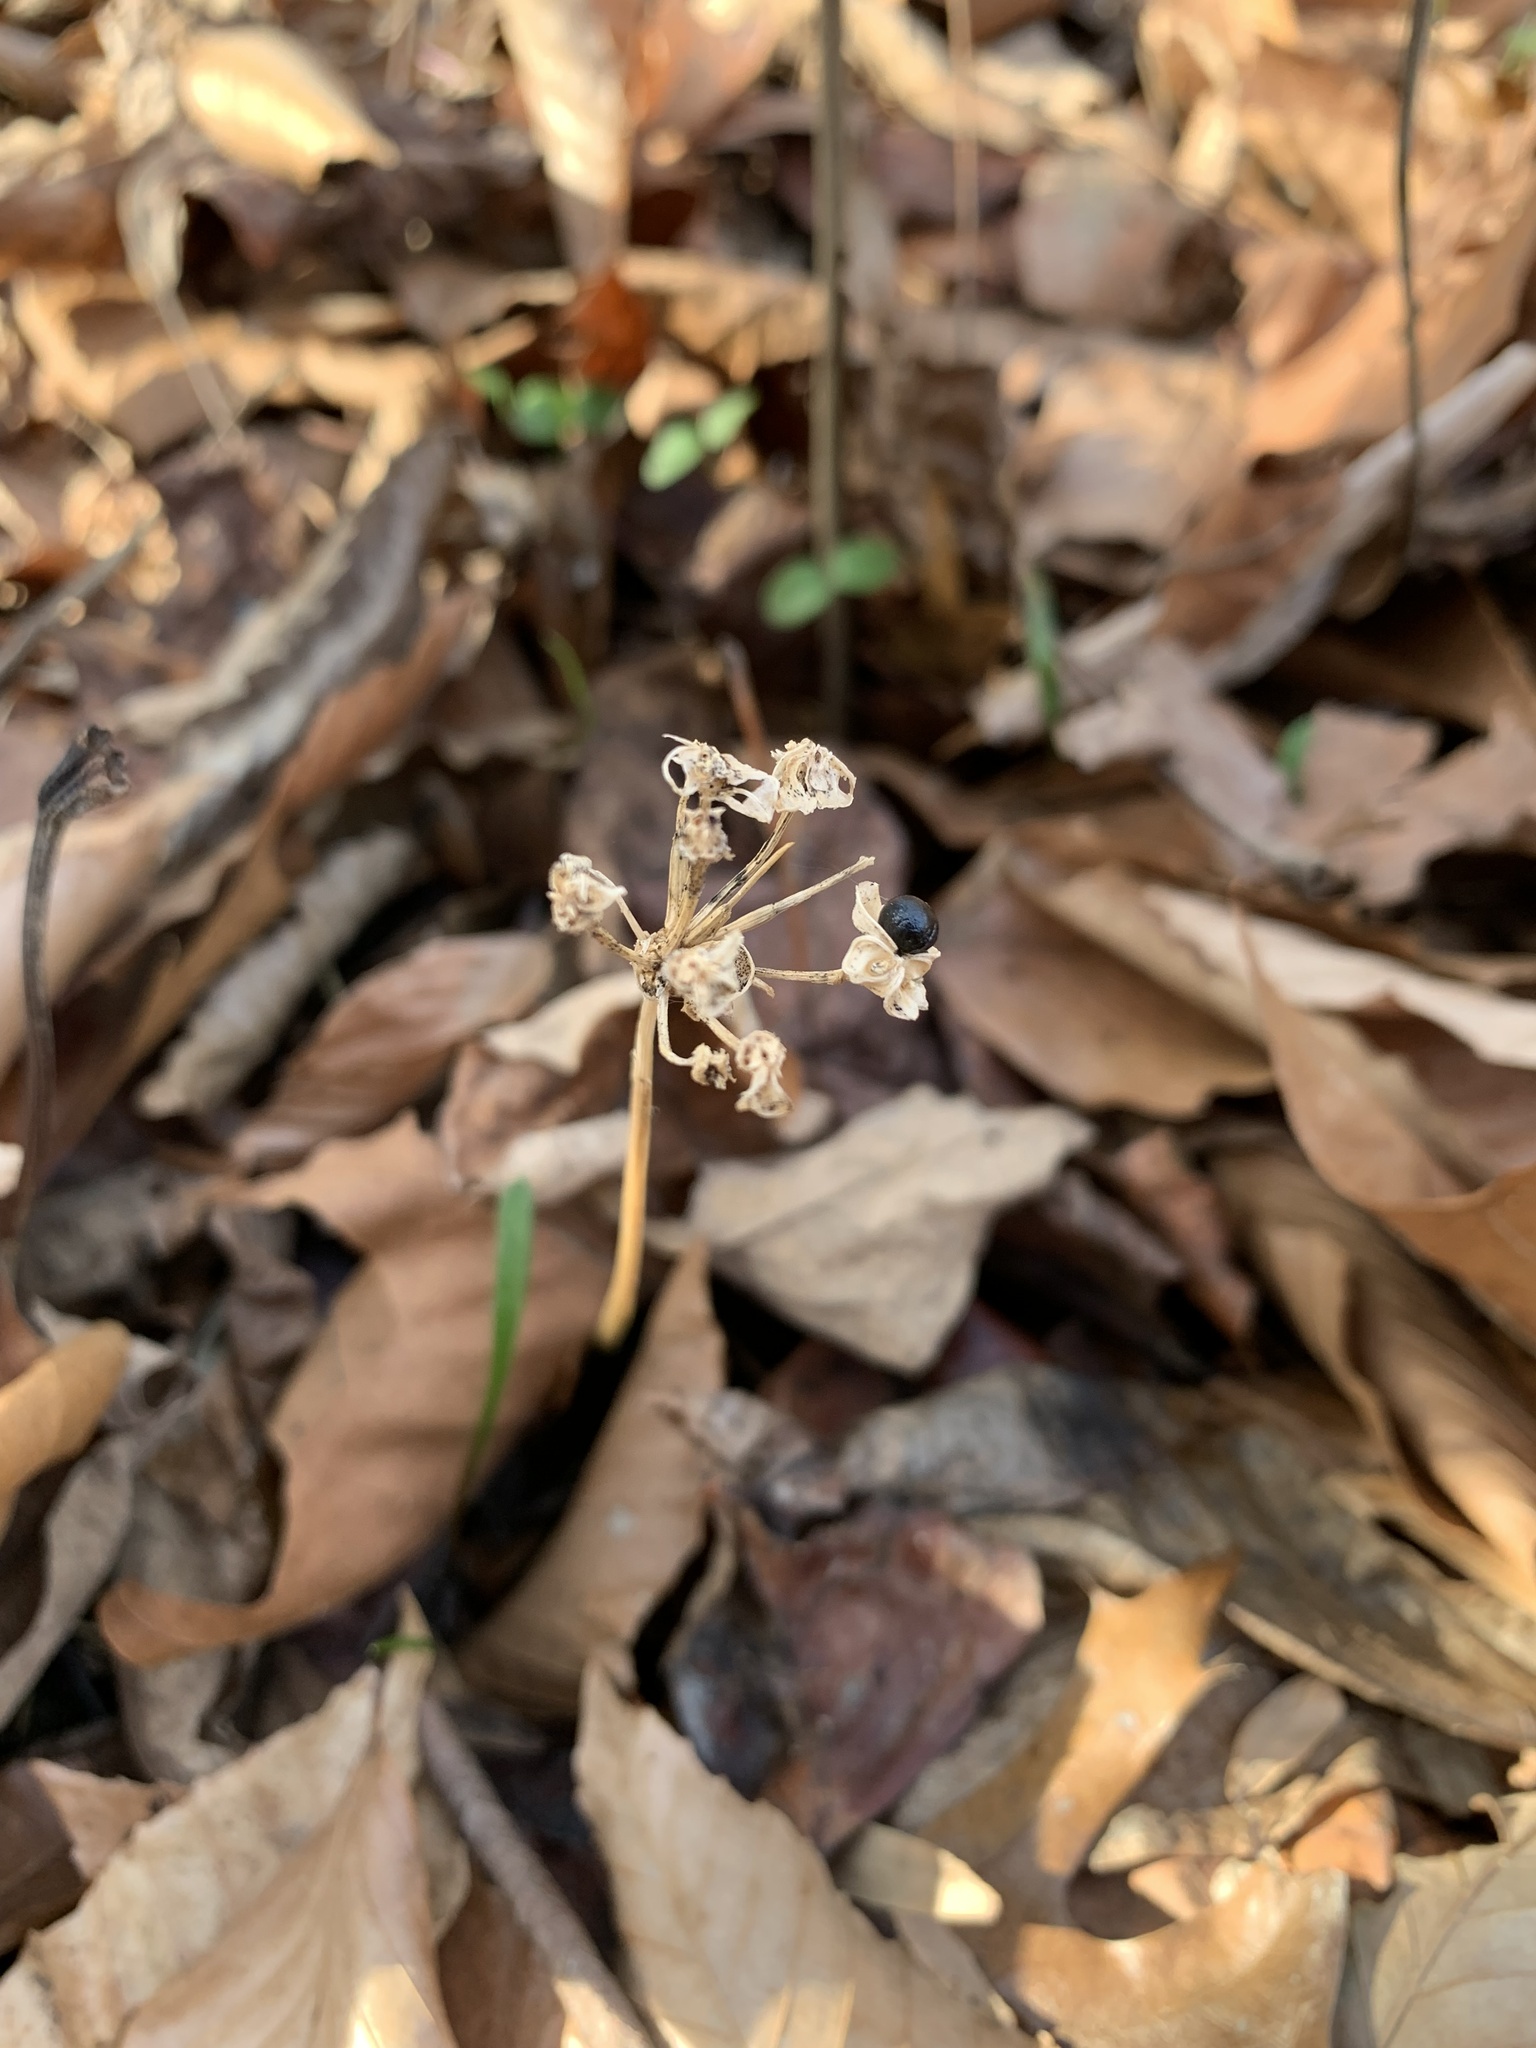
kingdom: Plantae
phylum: Tracheophyta
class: Liliopsida
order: Asparagales
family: Amaryllidaceae
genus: Allium
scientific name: Allium tricoccum
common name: Ramp
